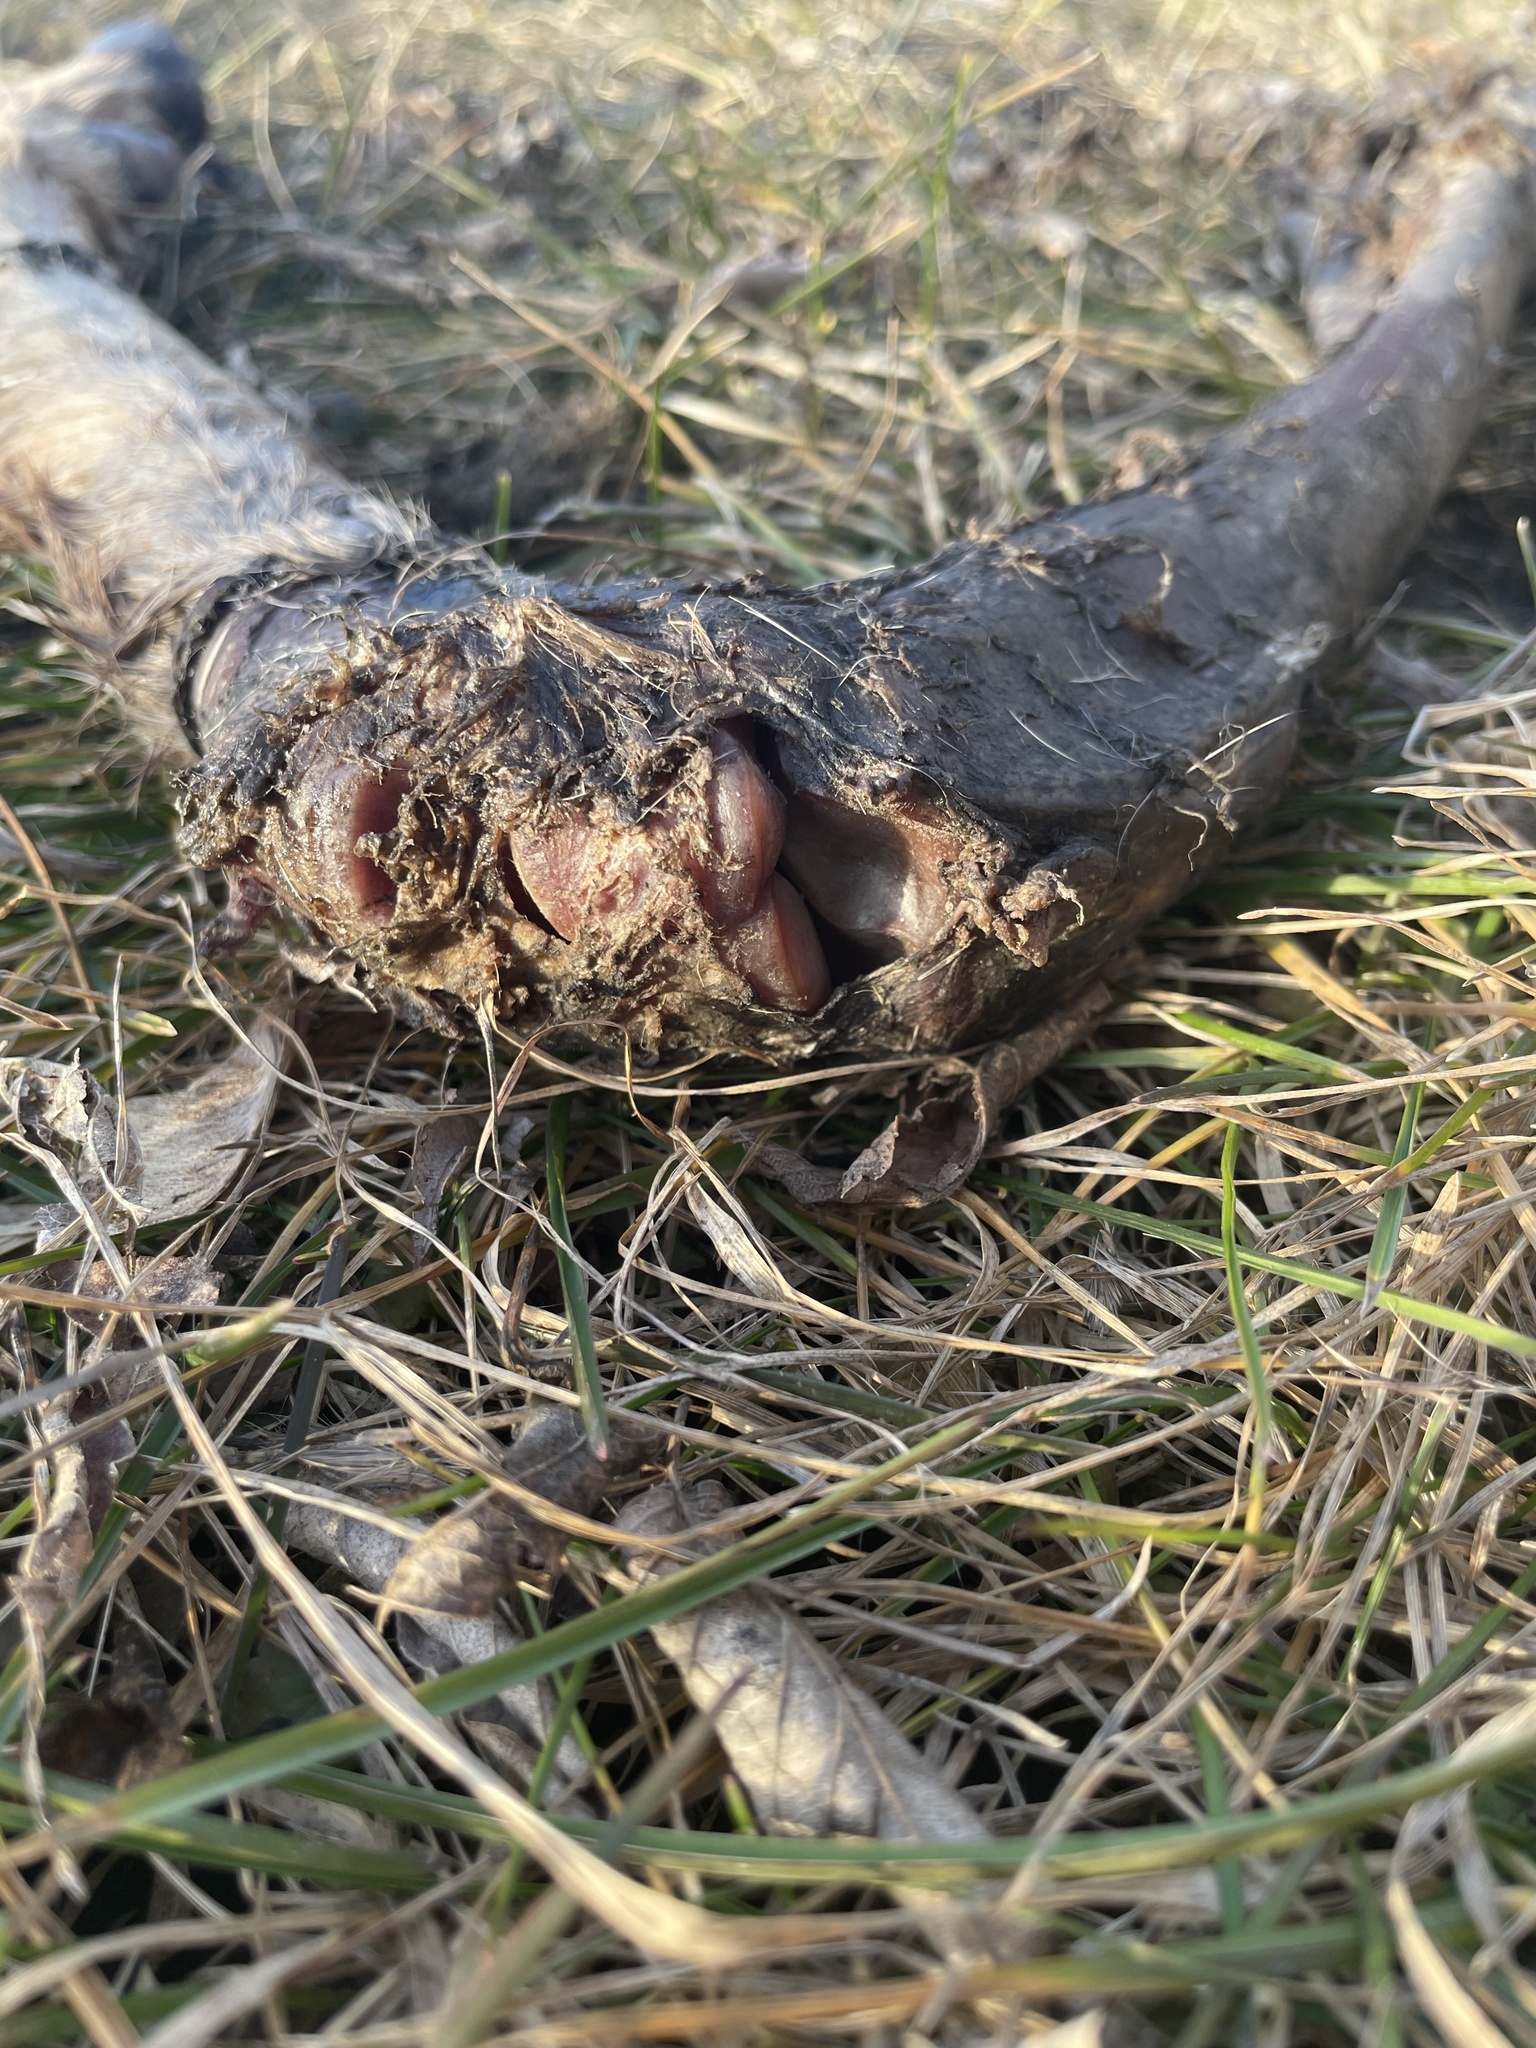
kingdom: Animalia
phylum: Chordata
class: Mammalia
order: Artiodactyla
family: Cervidae
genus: Odocoileus
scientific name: Odocoileus virginianus
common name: White-tailed deer
